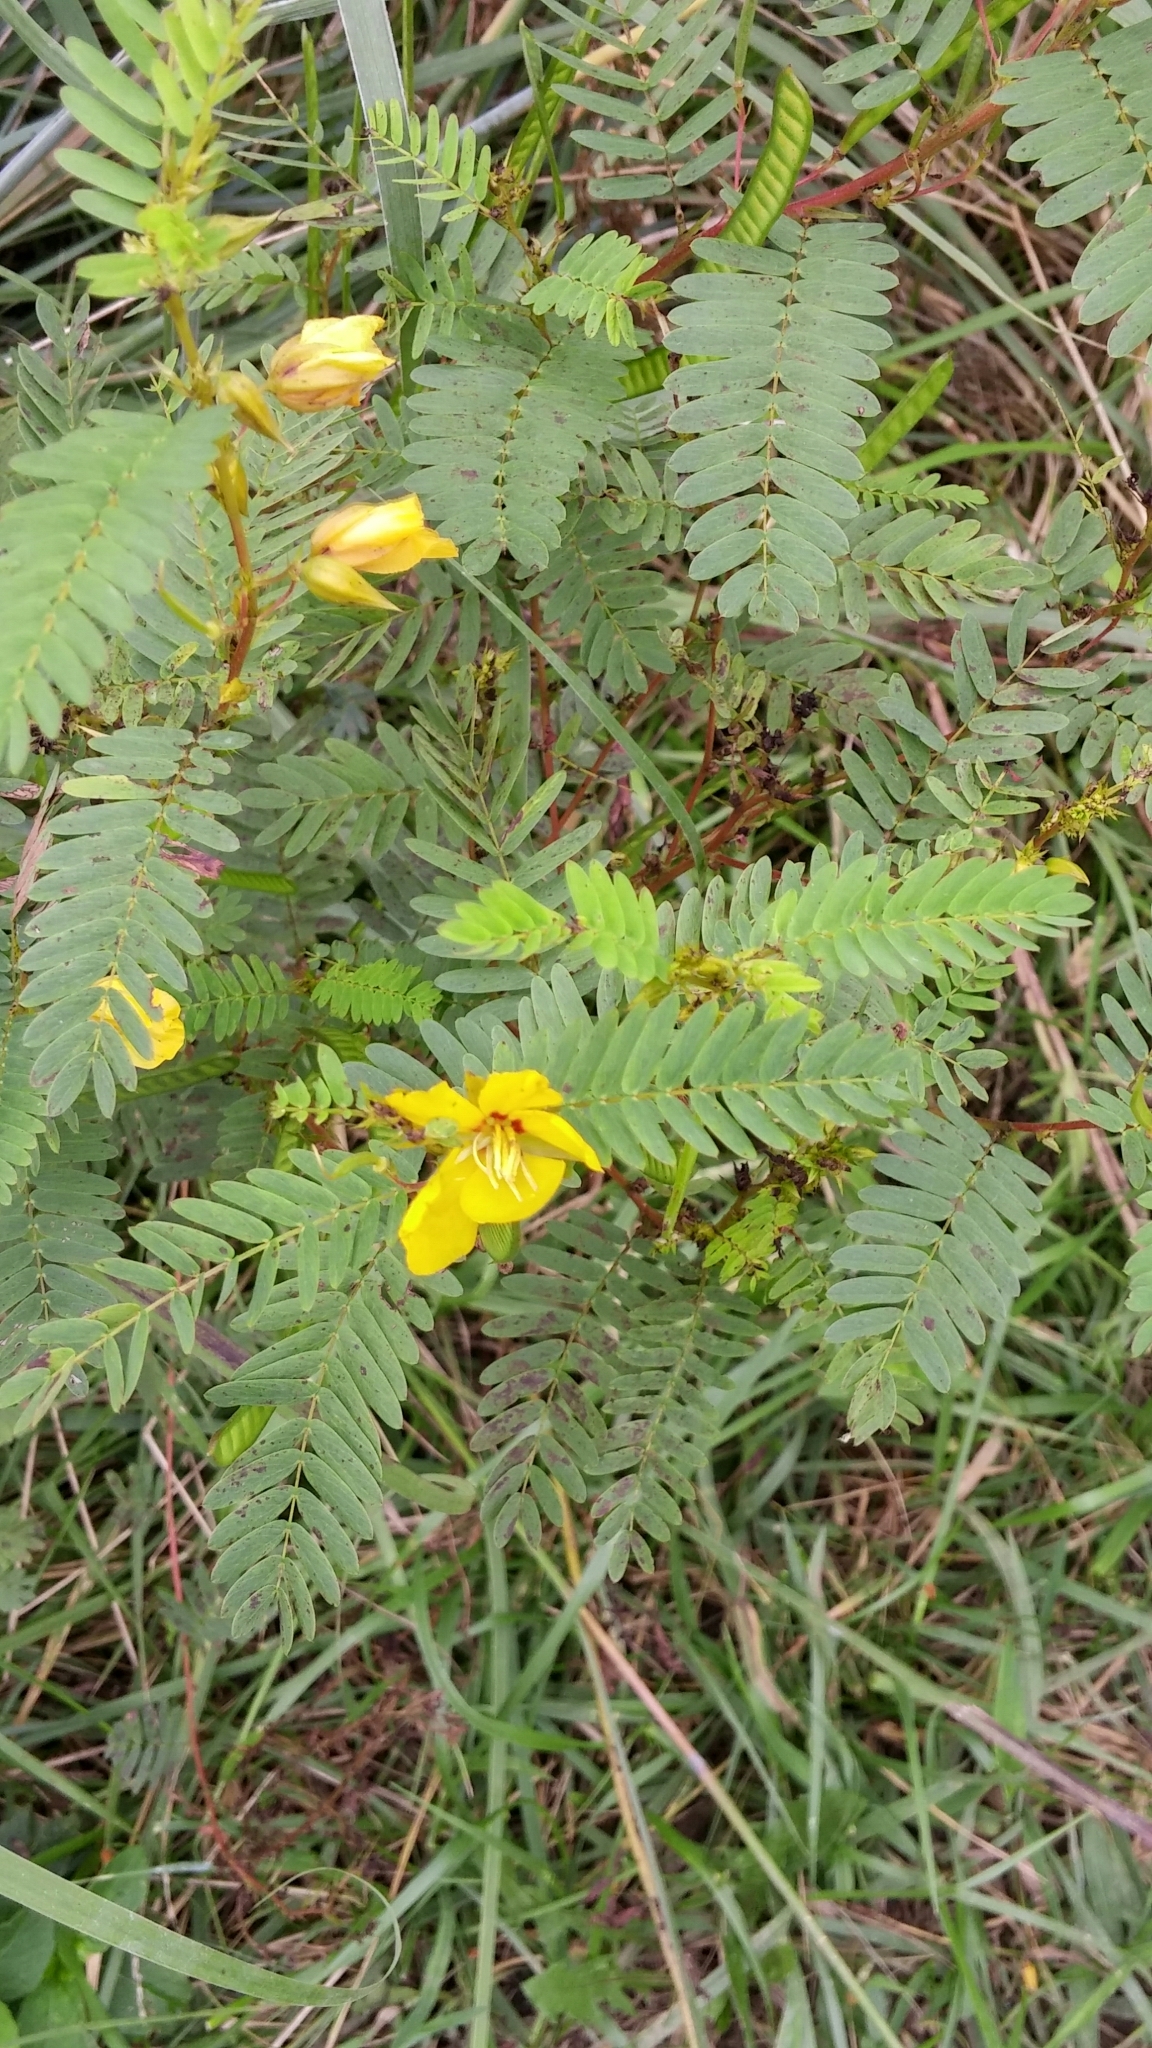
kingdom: Plantae
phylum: Tracheophyta
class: Magnoliopsida
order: Fabales
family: Fabaceae
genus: Chamaecrista
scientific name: Chamaecrista fasciculata
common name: Golden cassia
